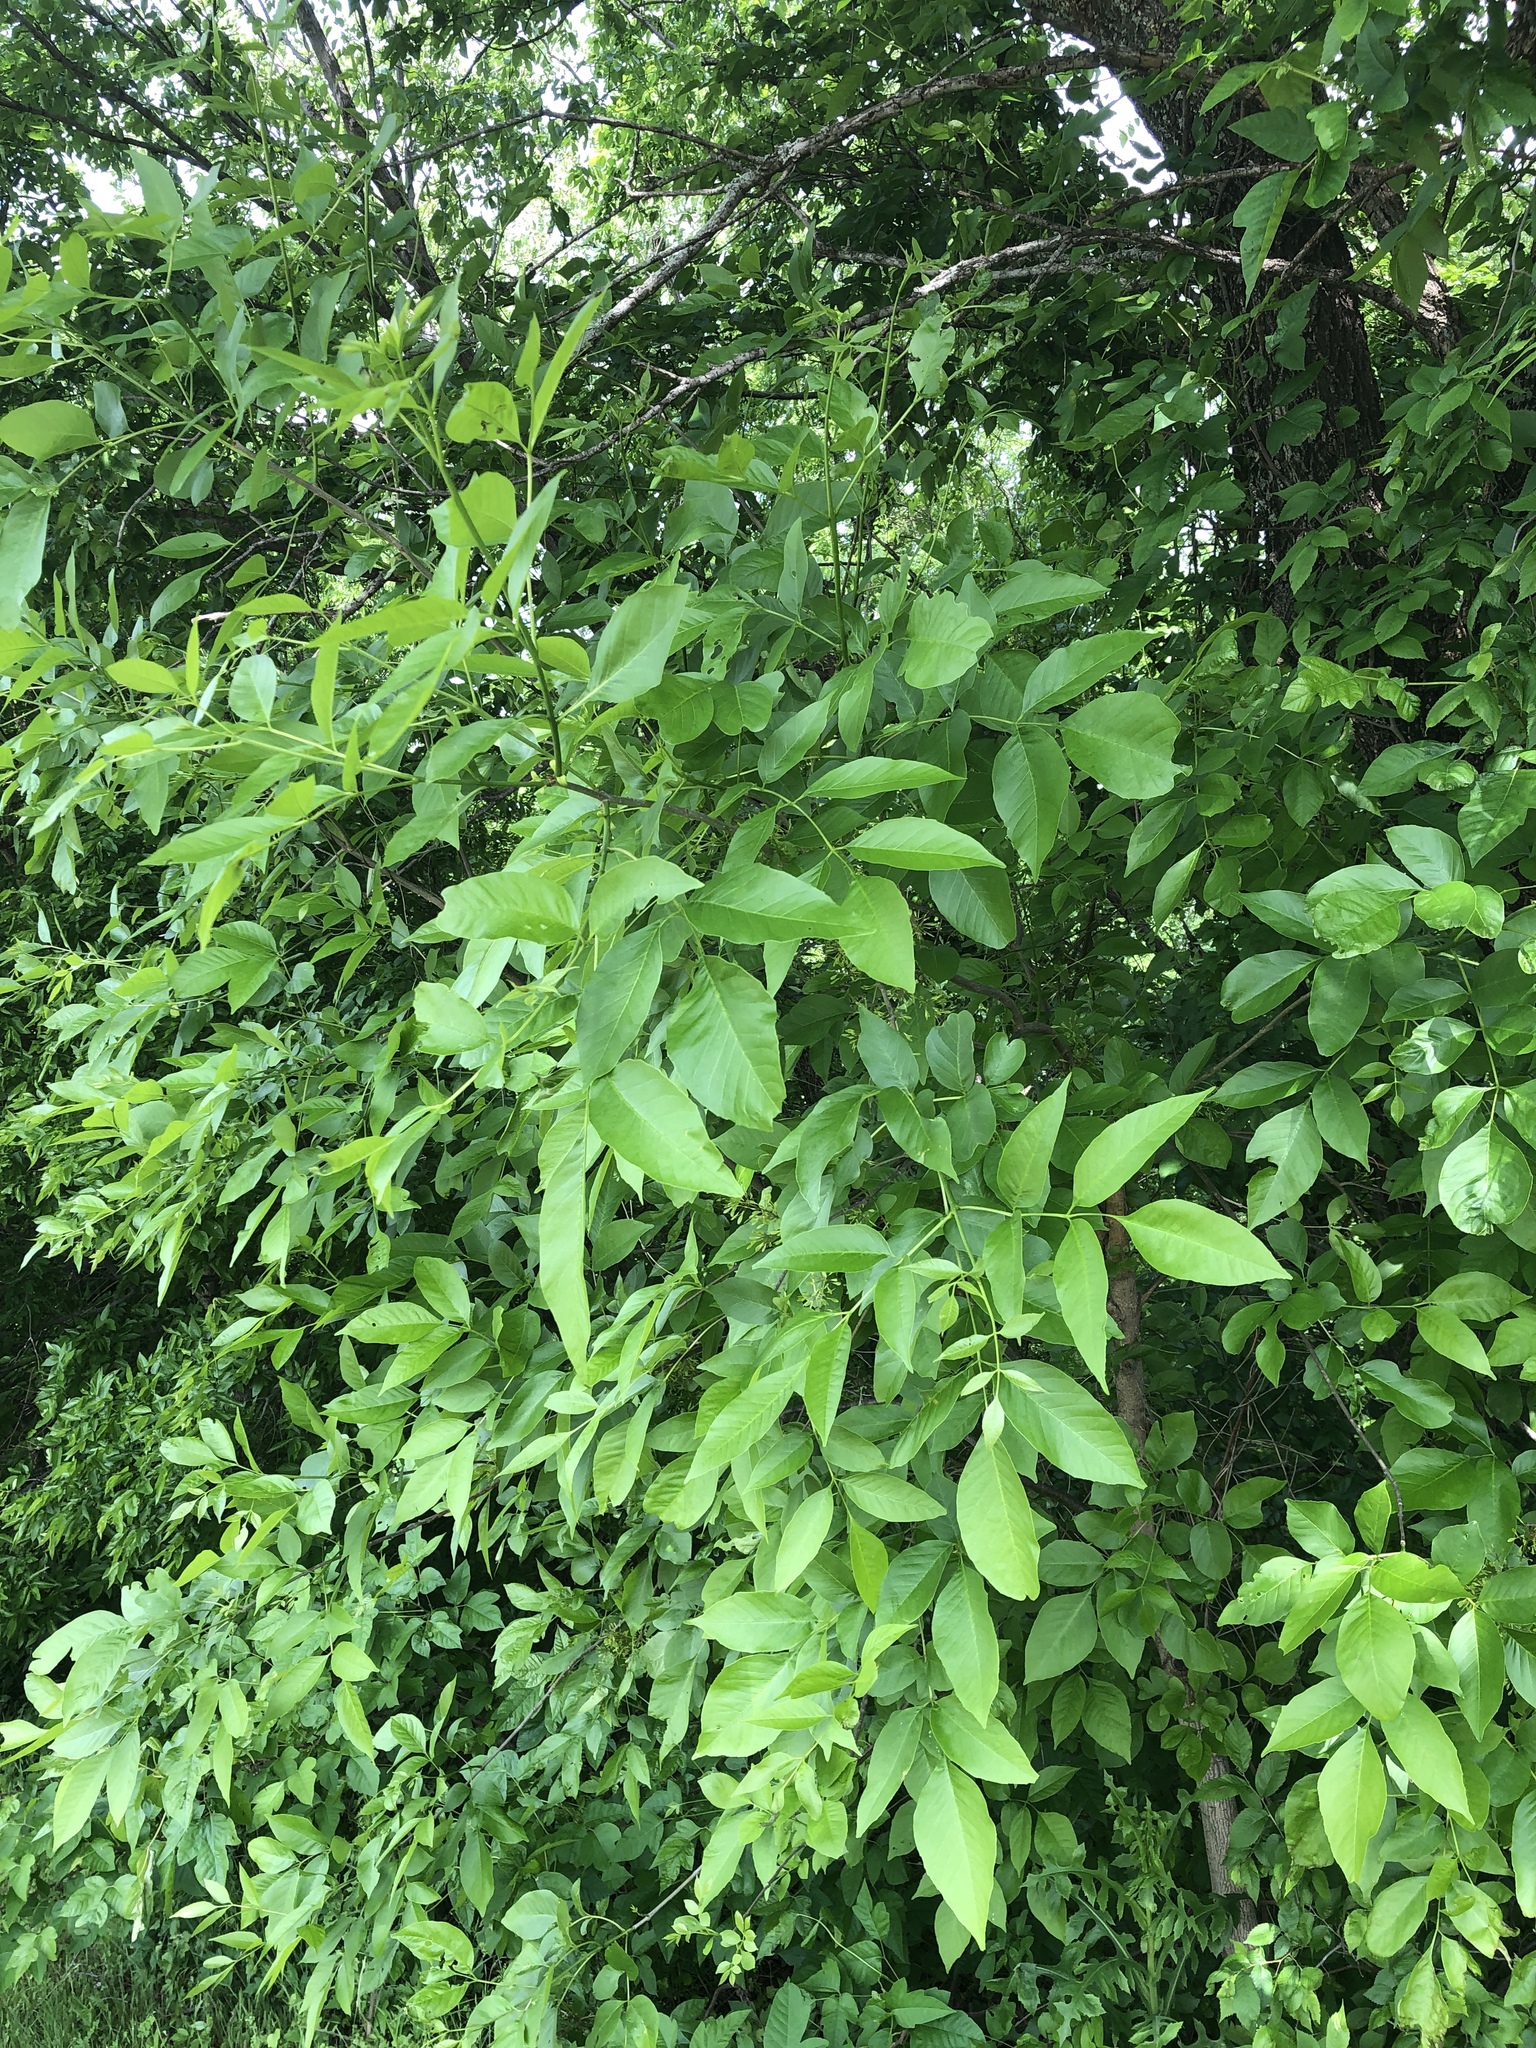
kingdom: Plantae
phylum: Tracheophyta
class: Magnoliopsida
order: Lamiales
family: Oleaceae
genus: Fraxinus
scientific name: Fraxinus pennsylvanica
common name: Green ash
